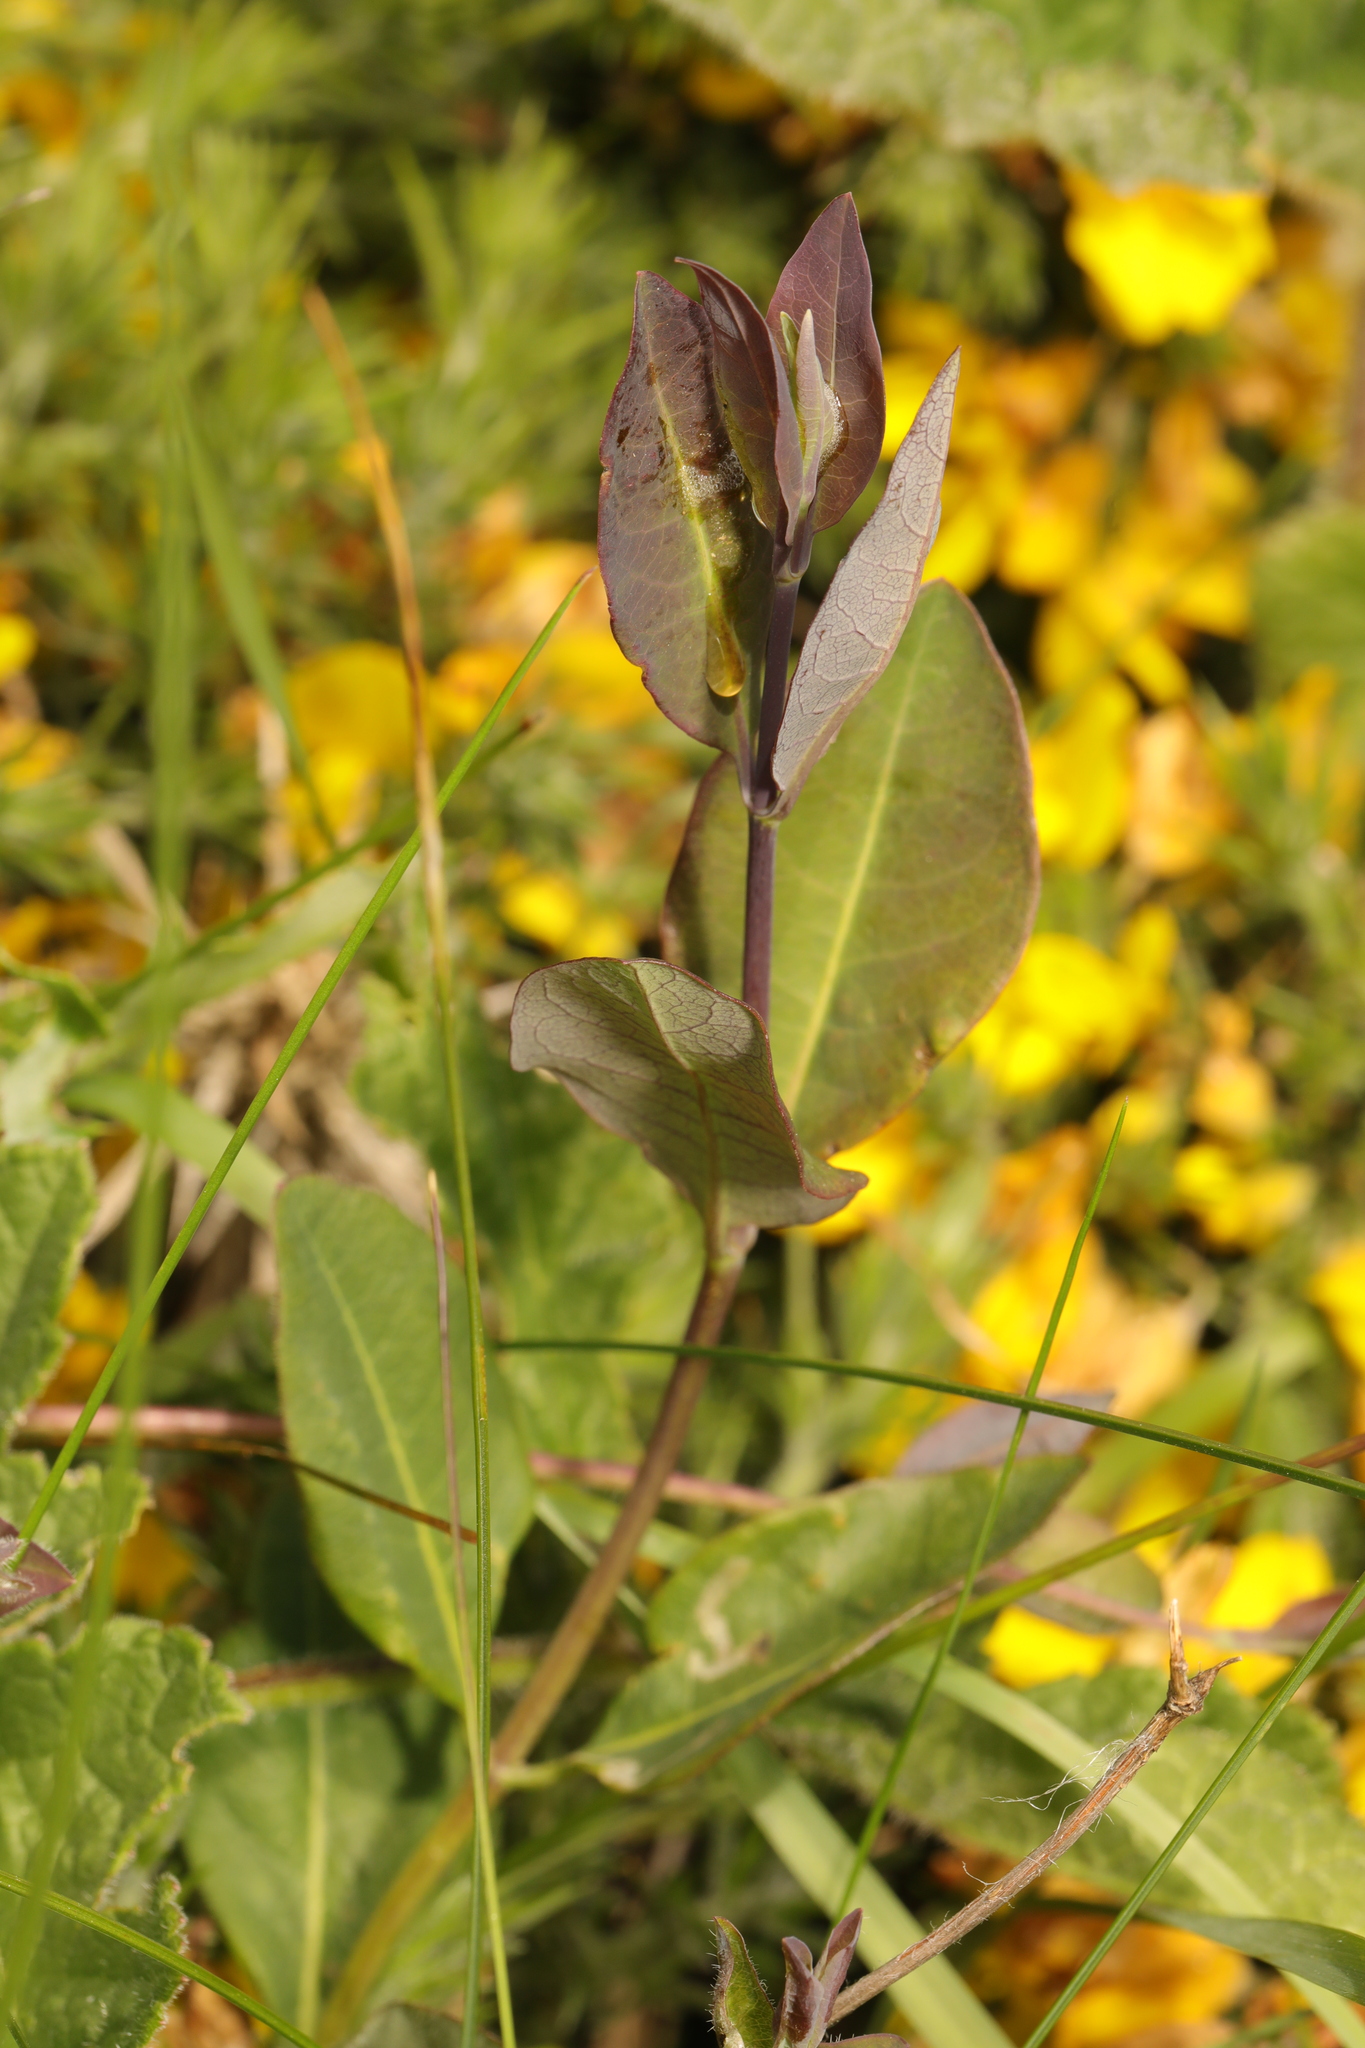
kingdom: Plantae
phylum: Tracheophyta
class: Magnoliopsida
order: Dipsacales
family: Caprifoliaceae
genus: Lonicera
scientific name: Lonicera periclymenum
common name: European honeysuckle
